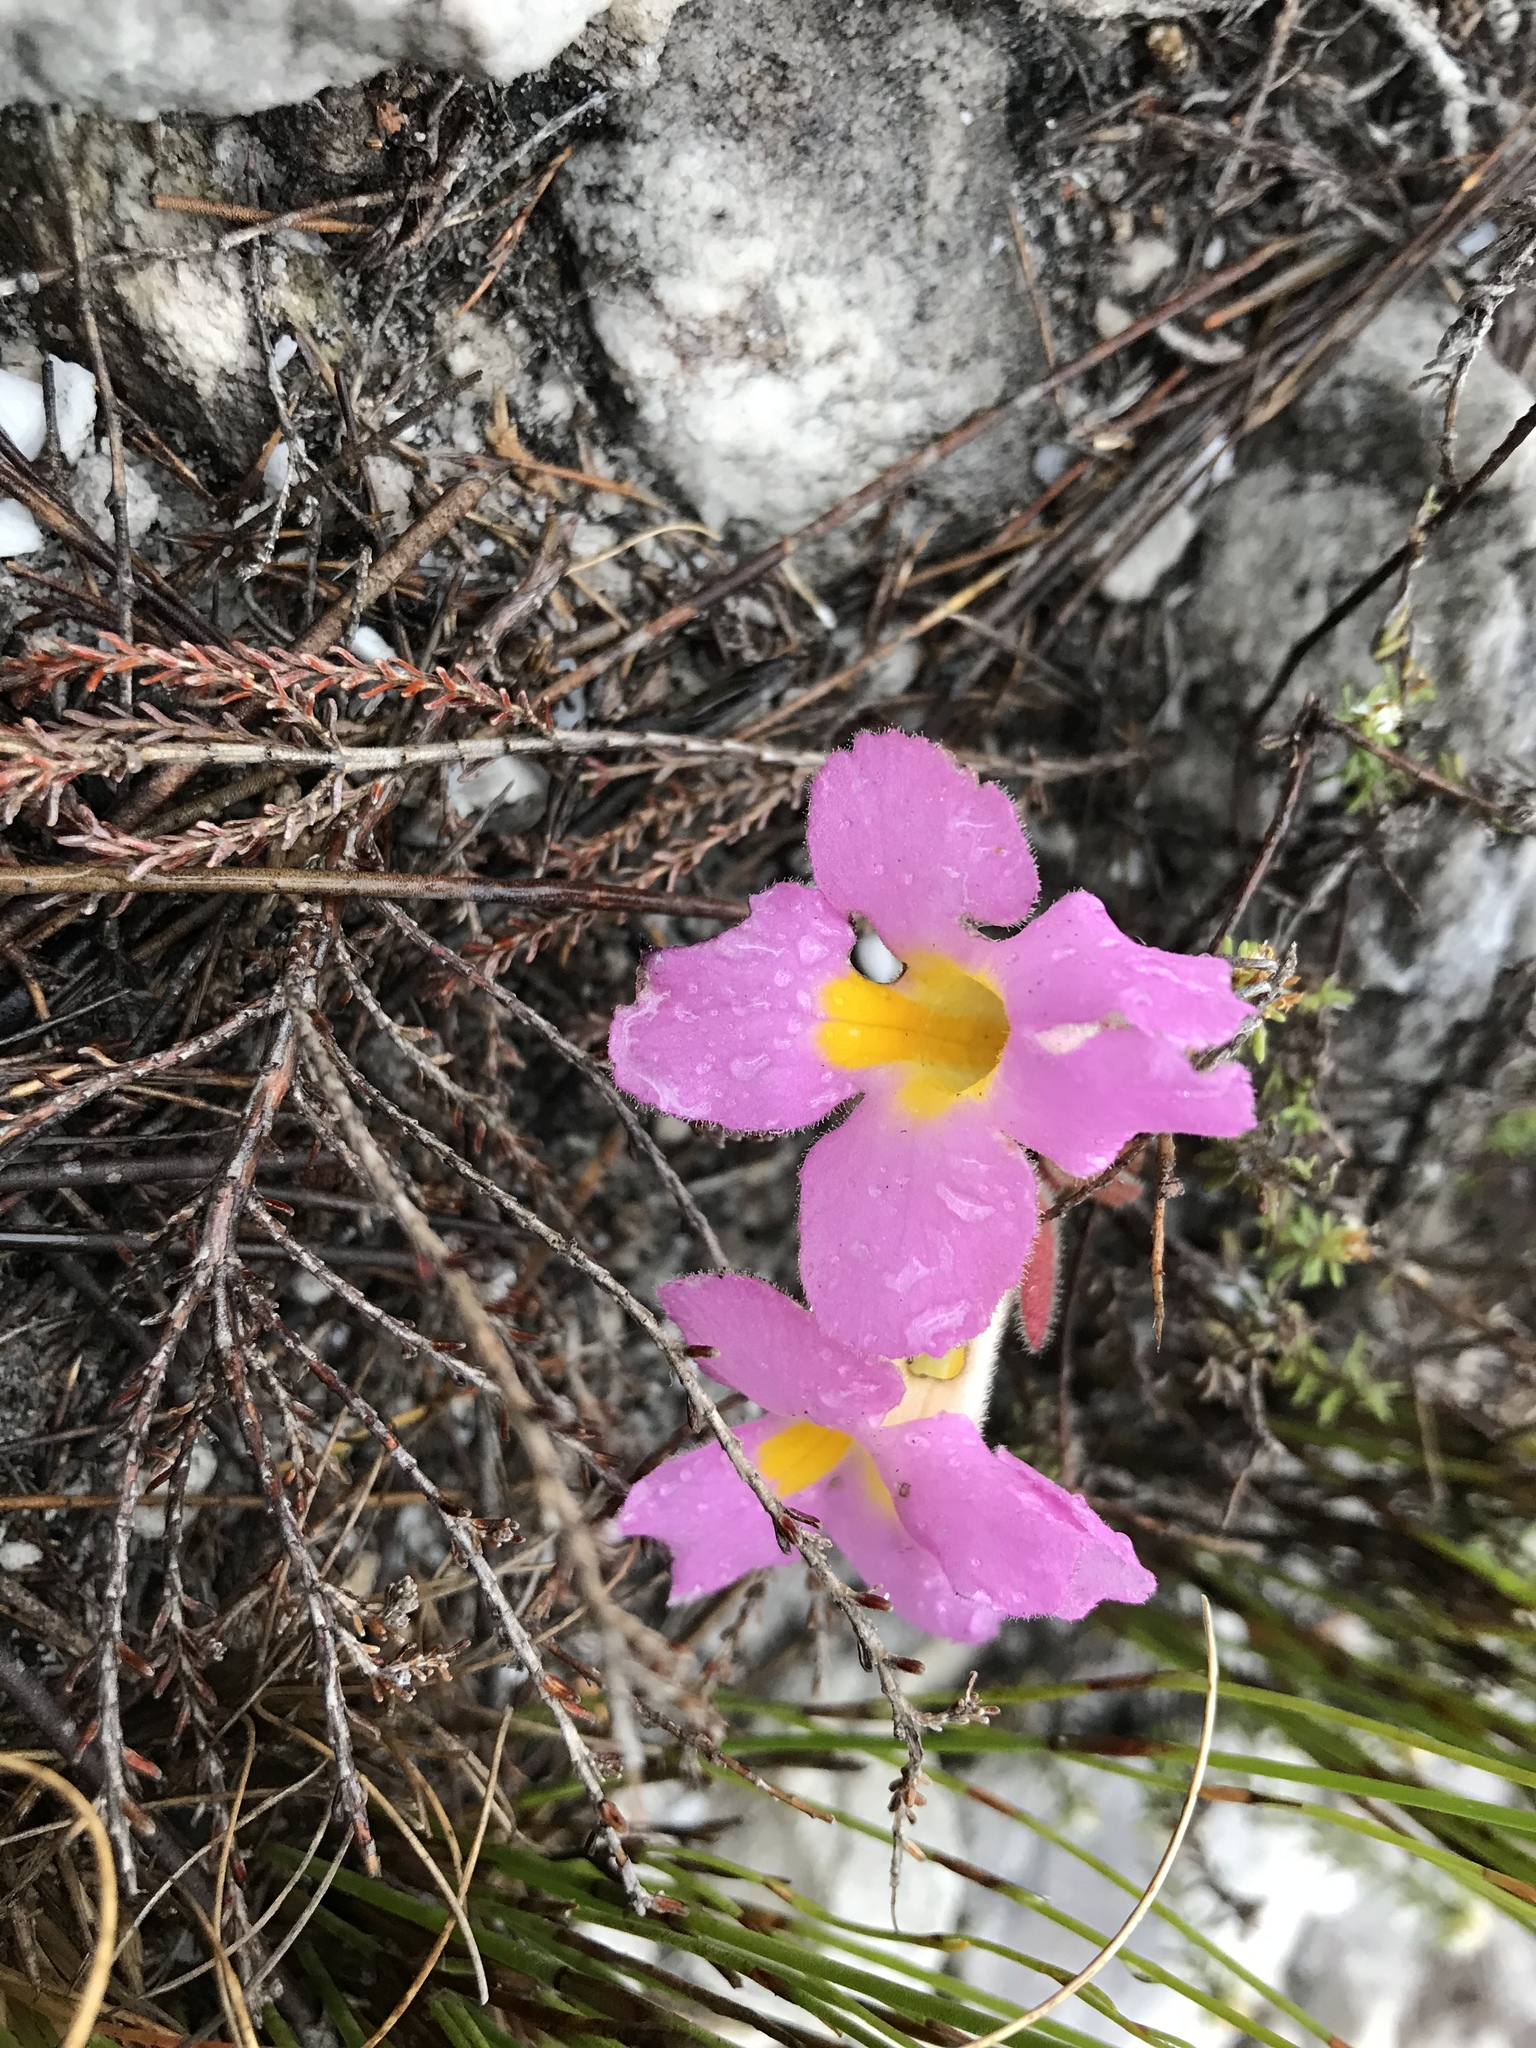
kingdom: Plantae
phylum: Tracheophyta
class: Magnoliopsida
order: Lamiales
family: Orobanchaceae
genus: Harveya
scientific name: Harveya purpurea
